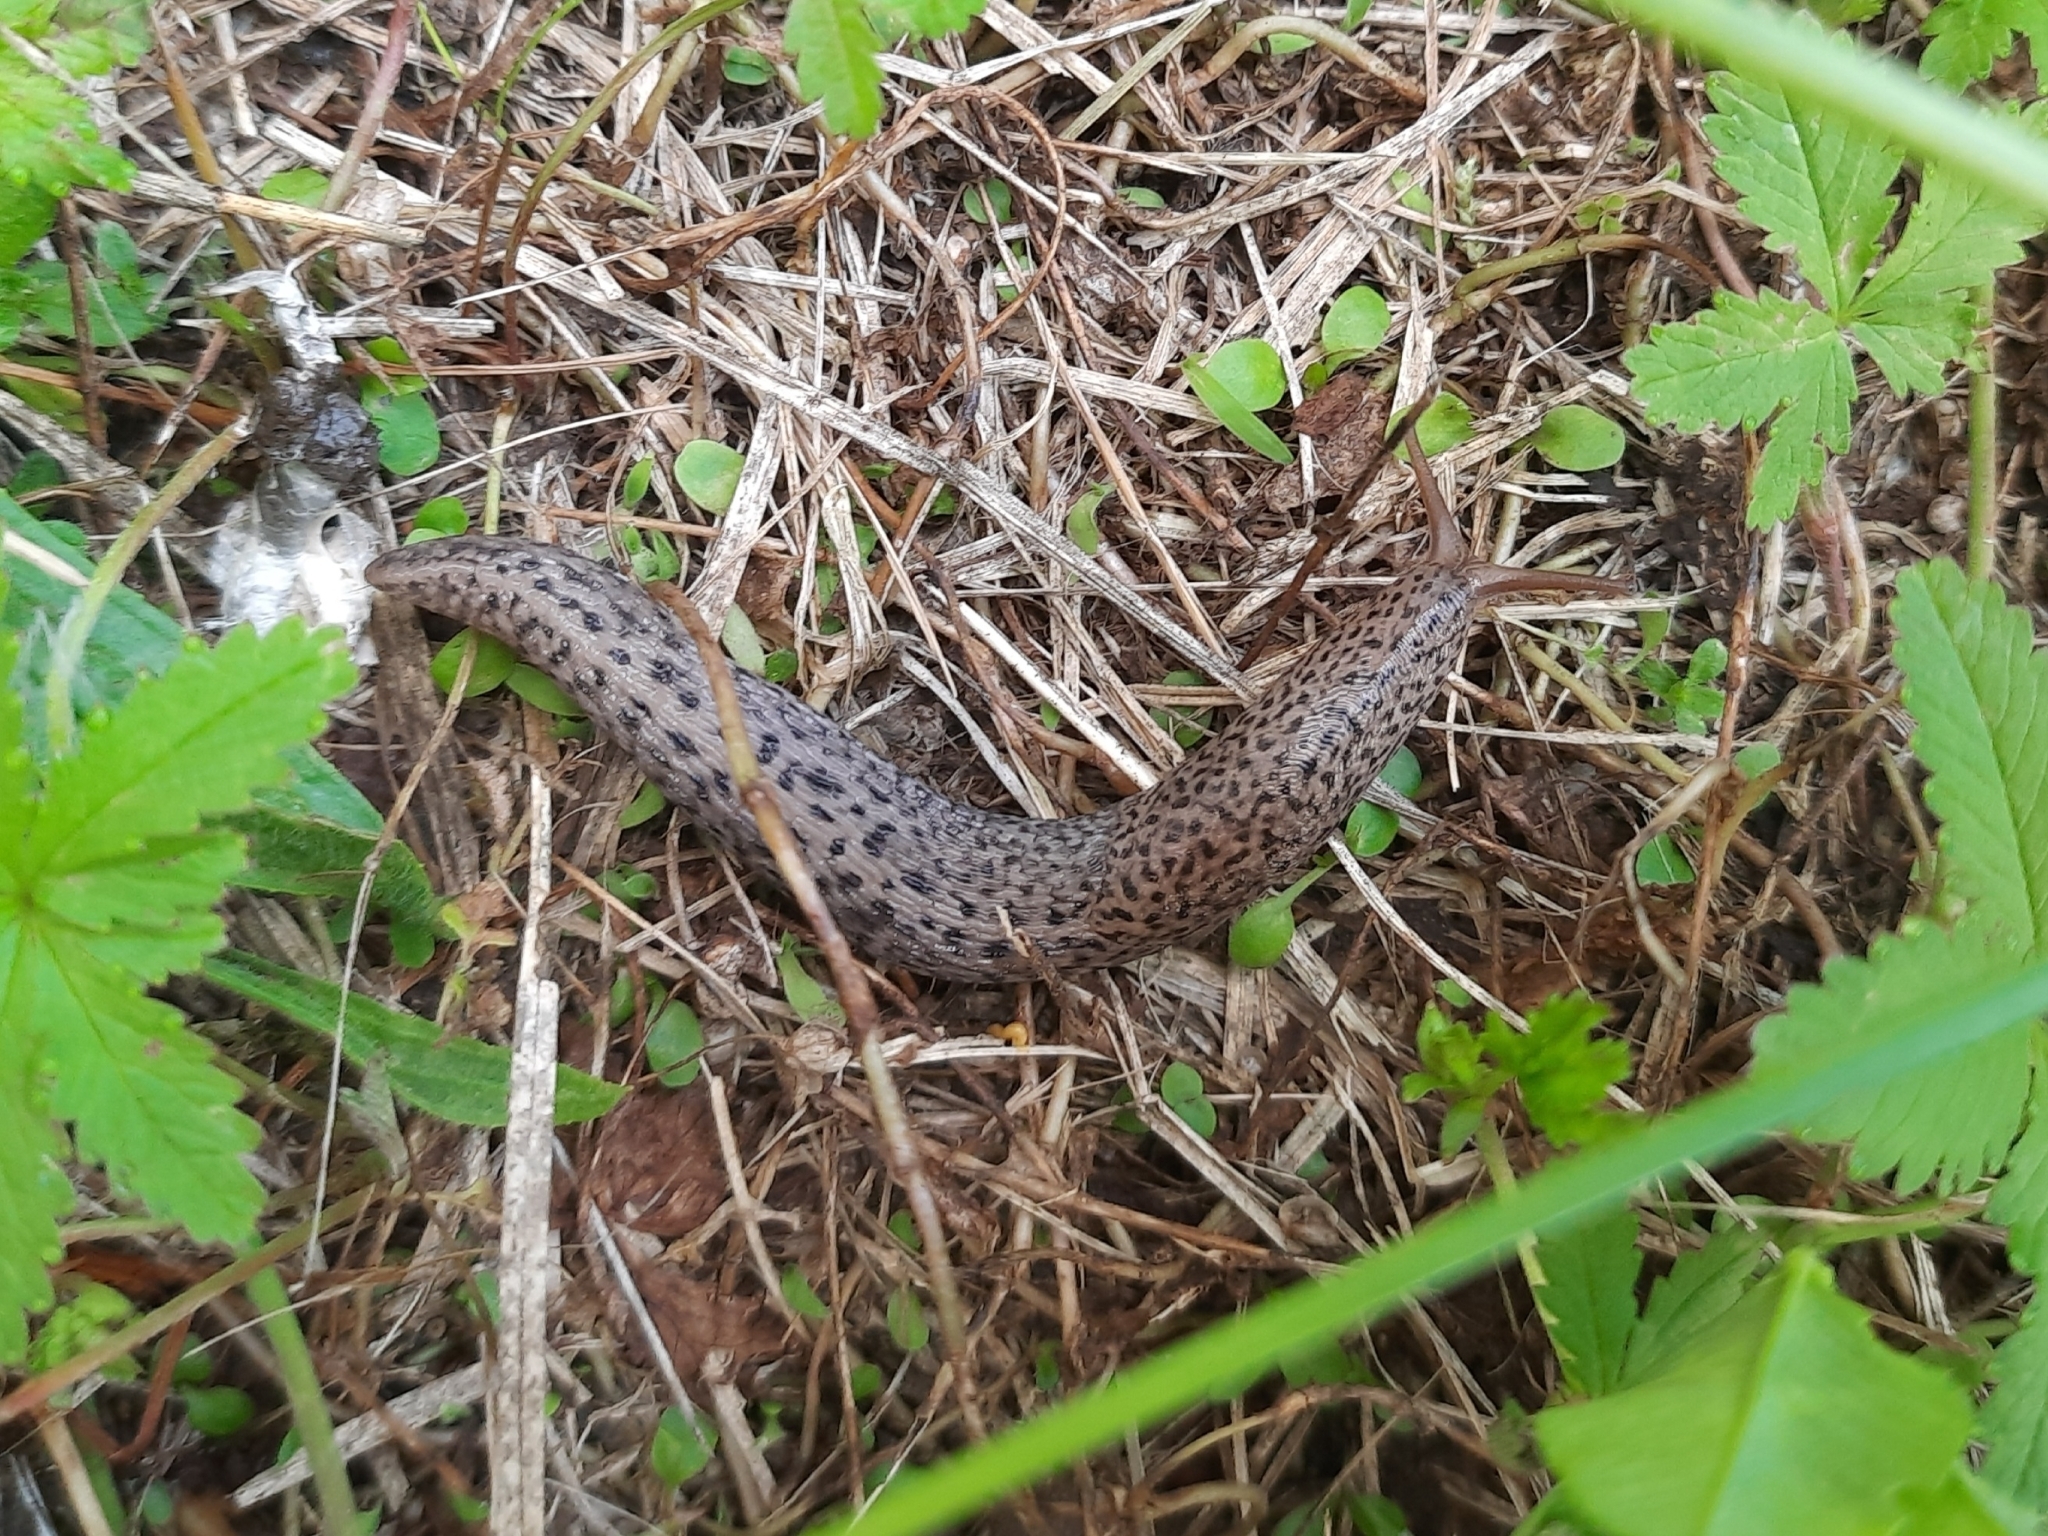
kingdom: Animalia
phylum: Mollusca
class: Gastropoda
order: Stylommatophora
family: Limacidae
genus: Limax
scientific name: Limax maximus
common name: Great grey slug
